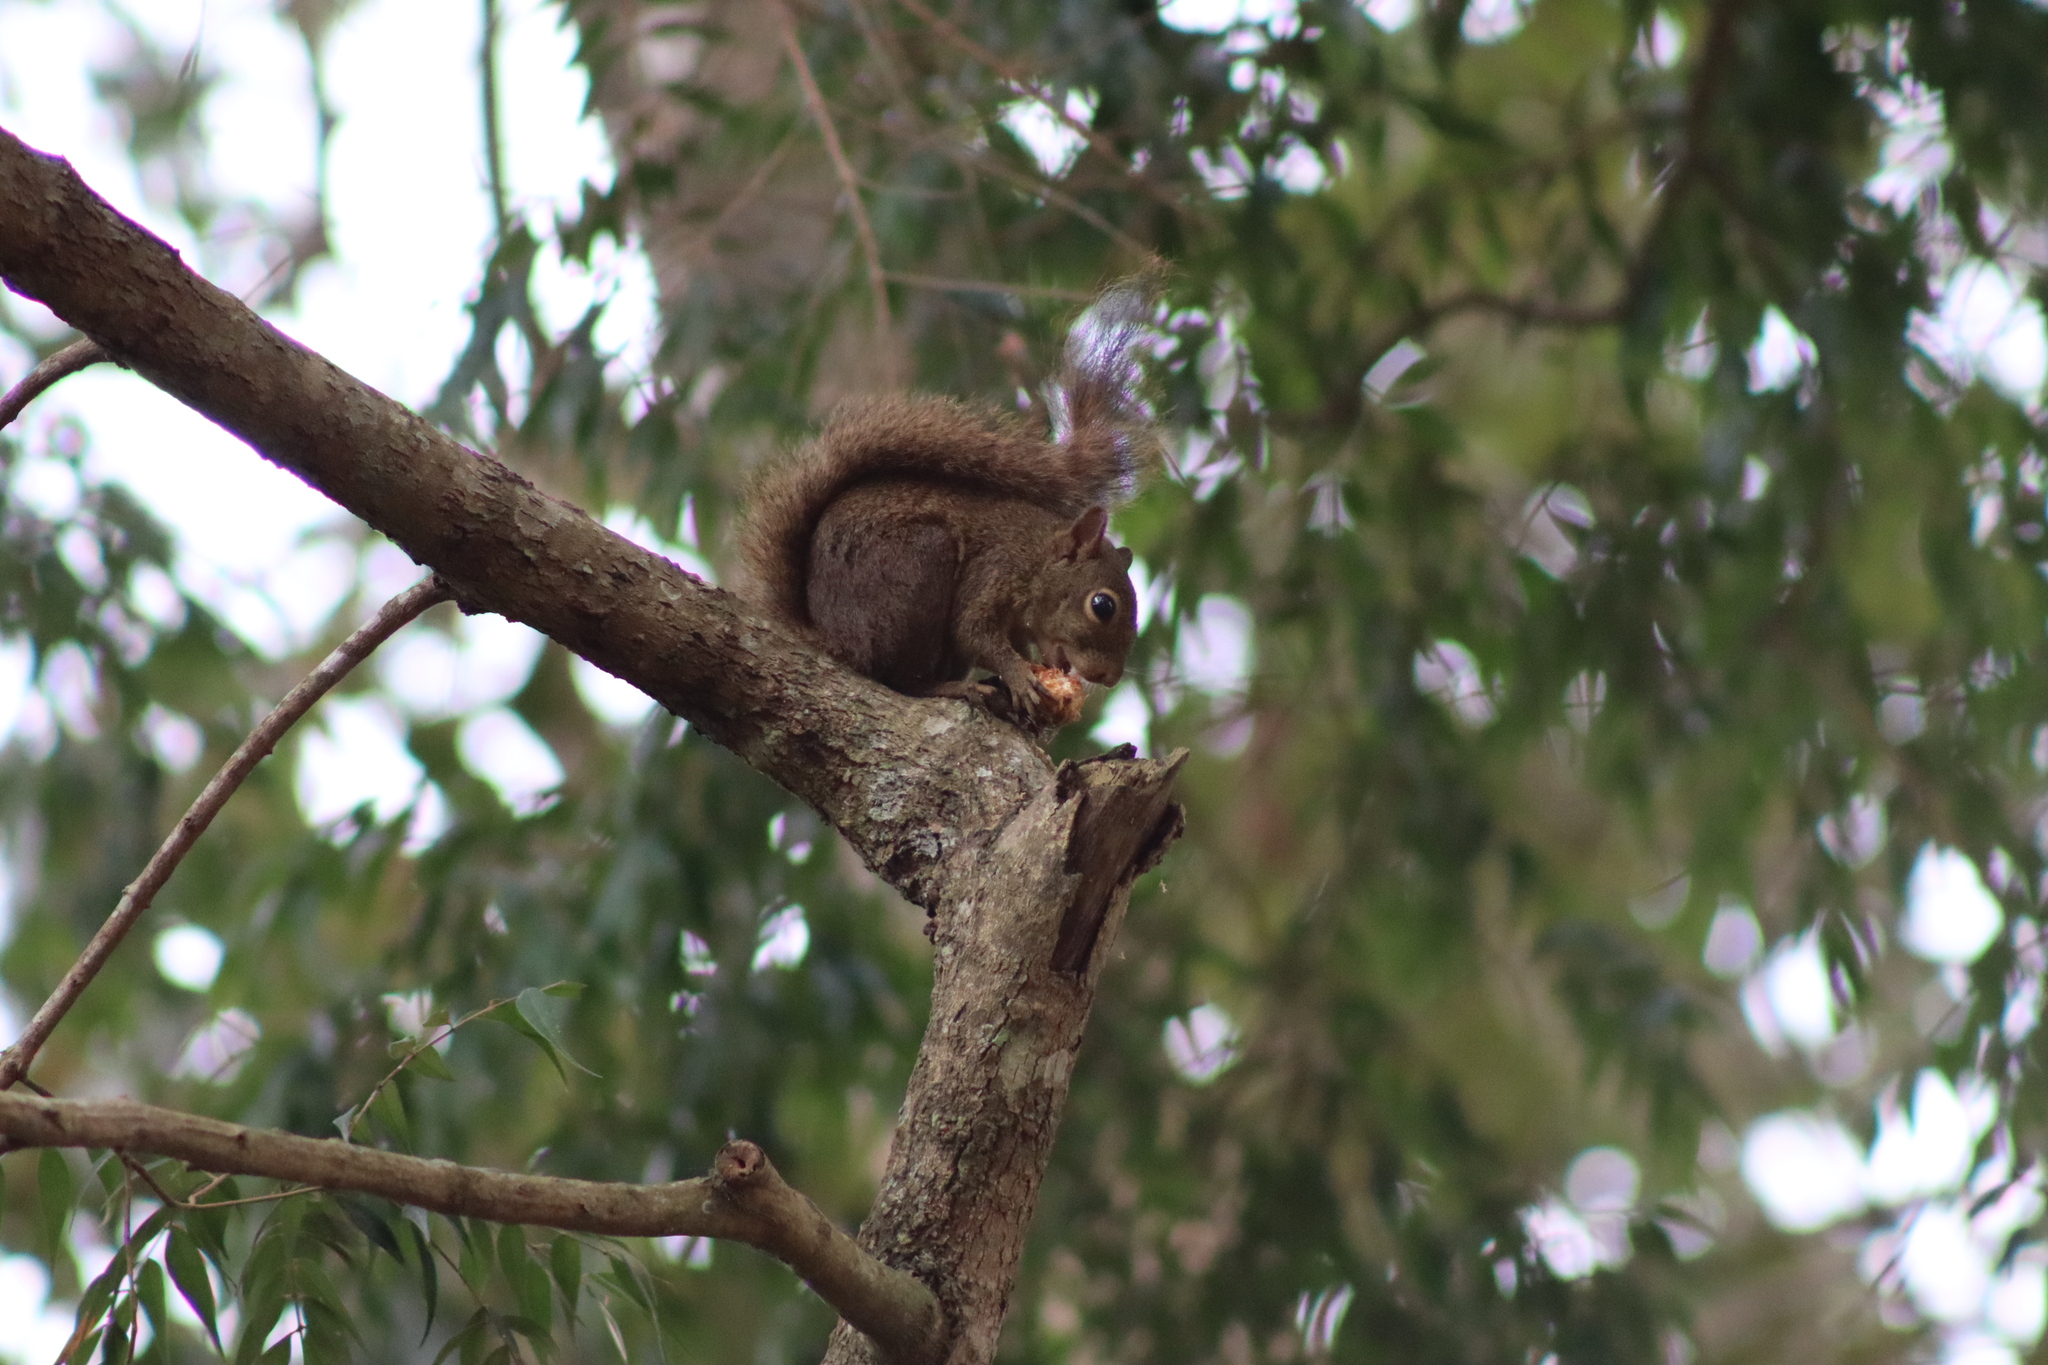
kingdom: Animalia
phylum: Chordata
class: Mammalia
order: Rodentia
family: Sciuridae
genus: Sciurus
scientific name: Sciurus aestuans
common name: Guianan squirrel
